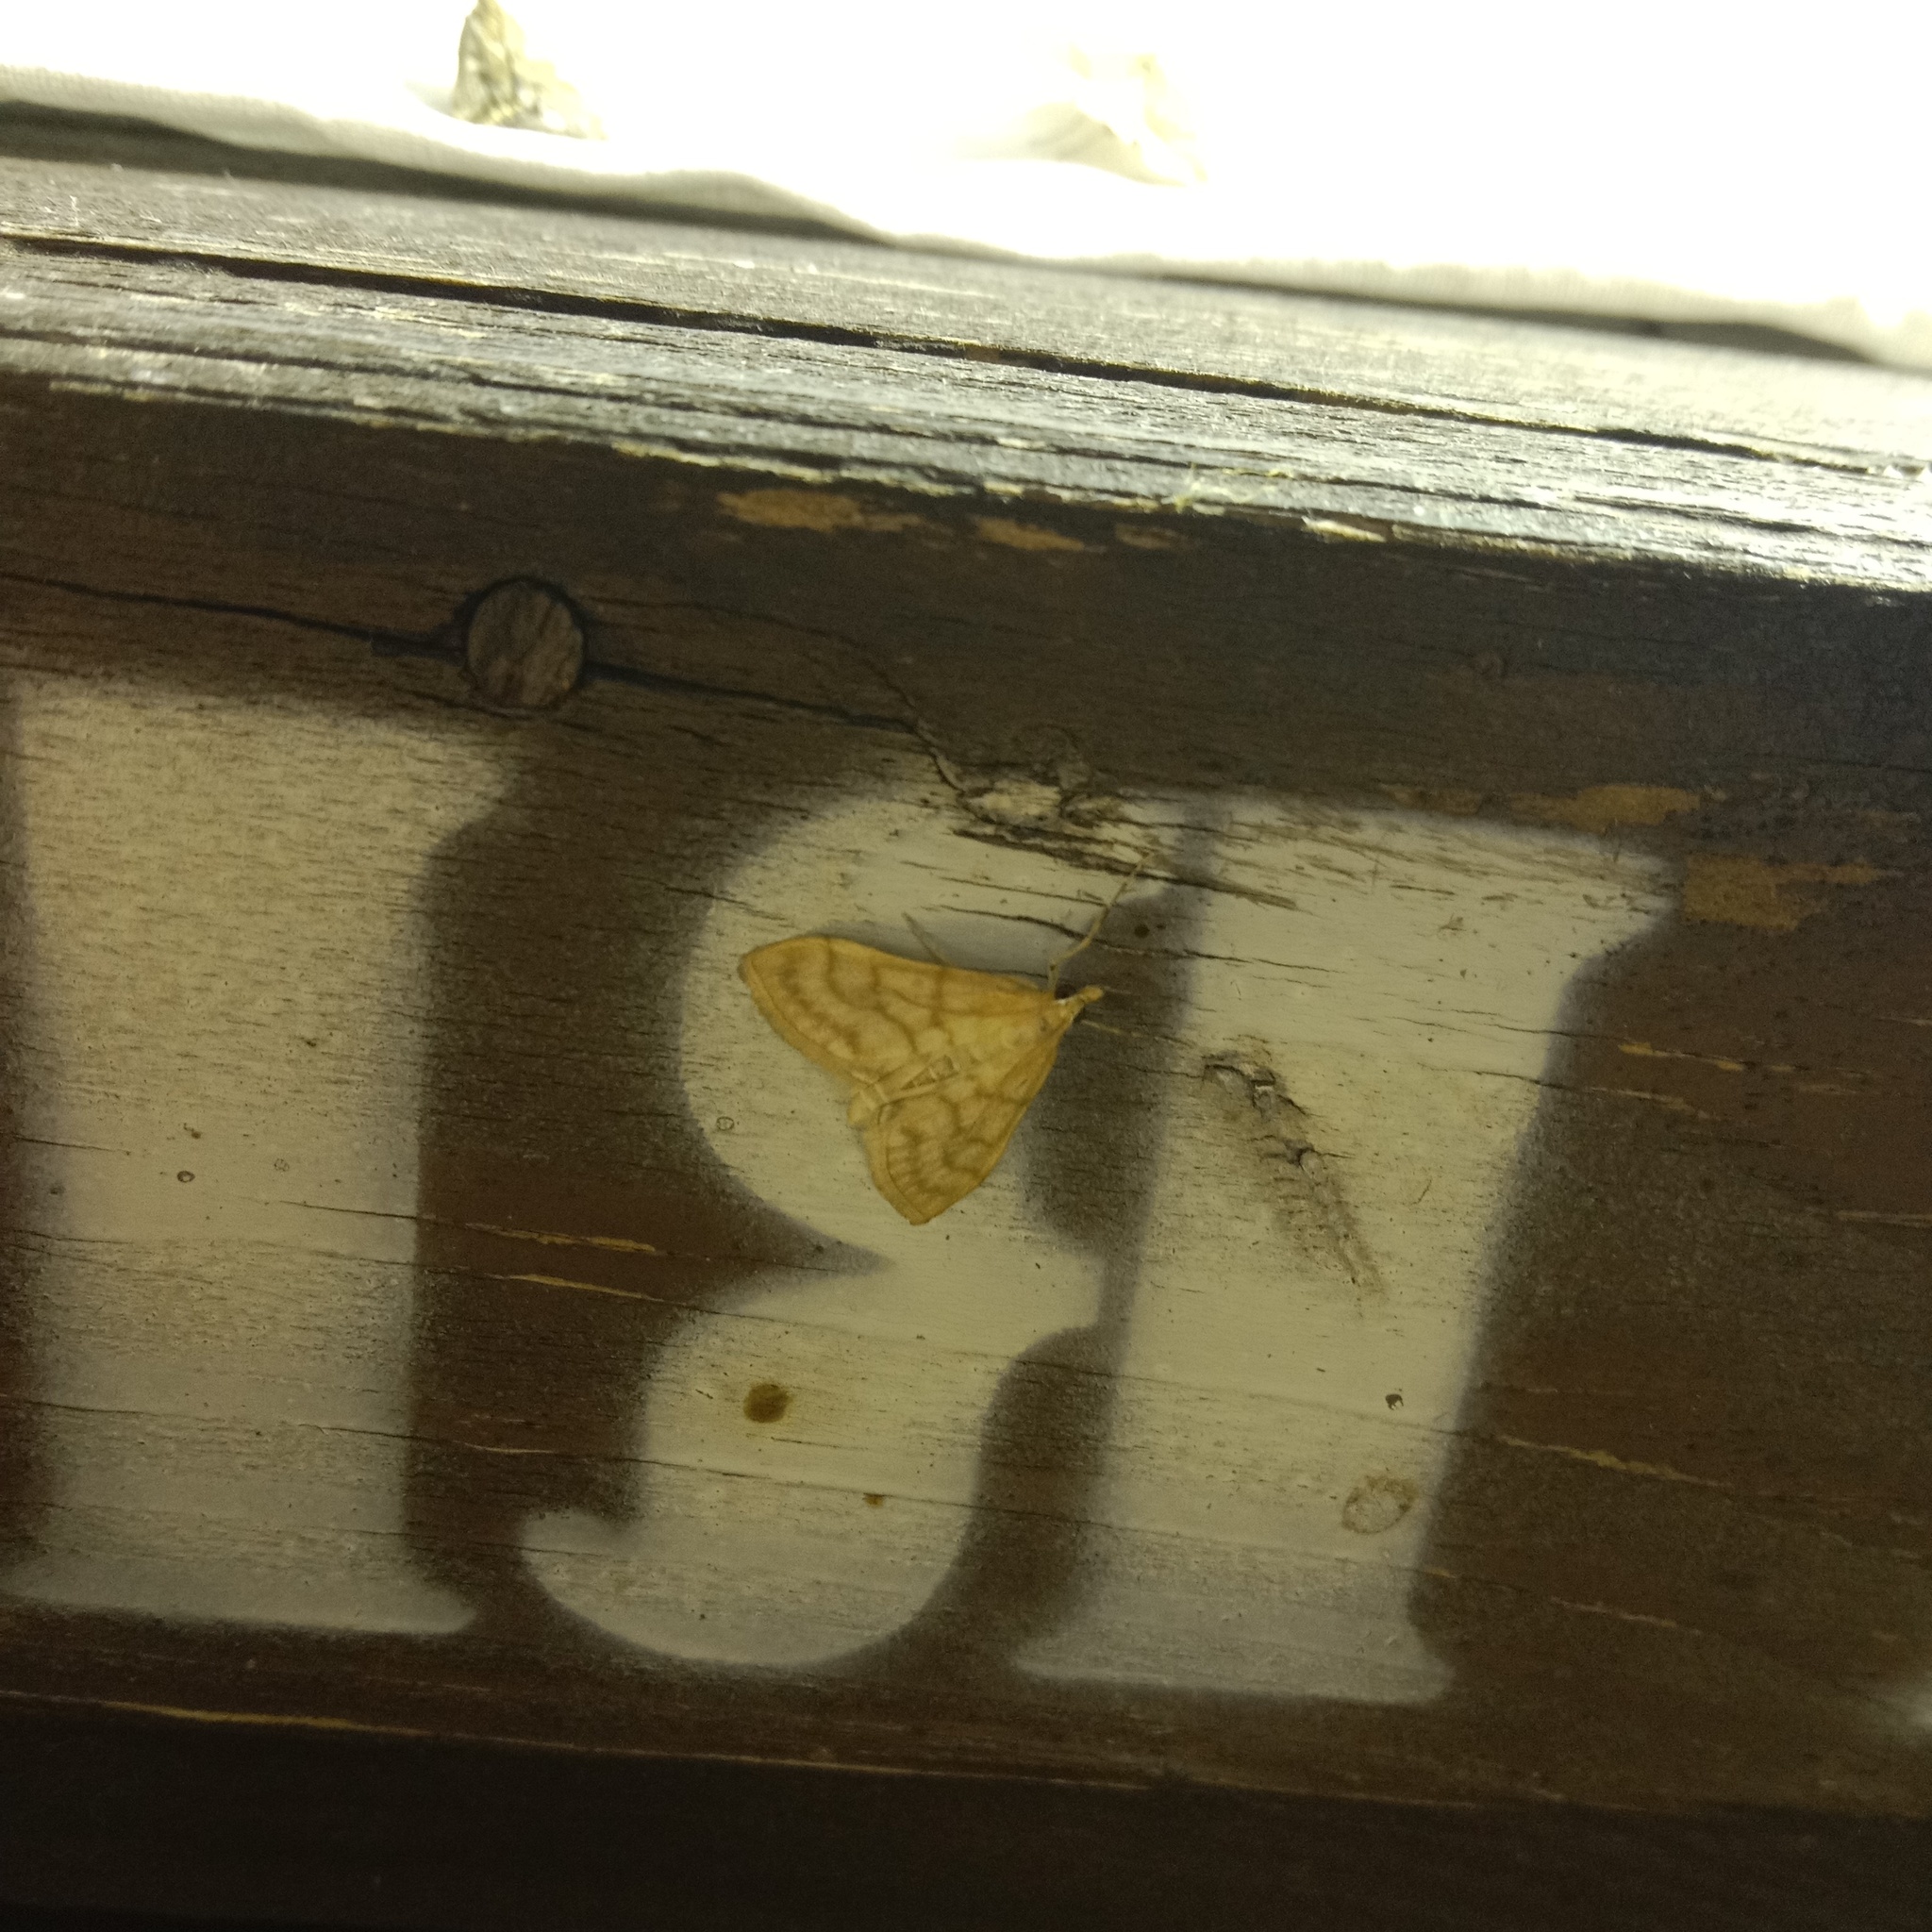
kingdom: Animalia
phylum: Arthropoda
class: Insecta
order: Lepidoptera
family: Crambidae
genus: Paracorsia
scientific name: Paracorsia repandalis
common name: Mullein moth
